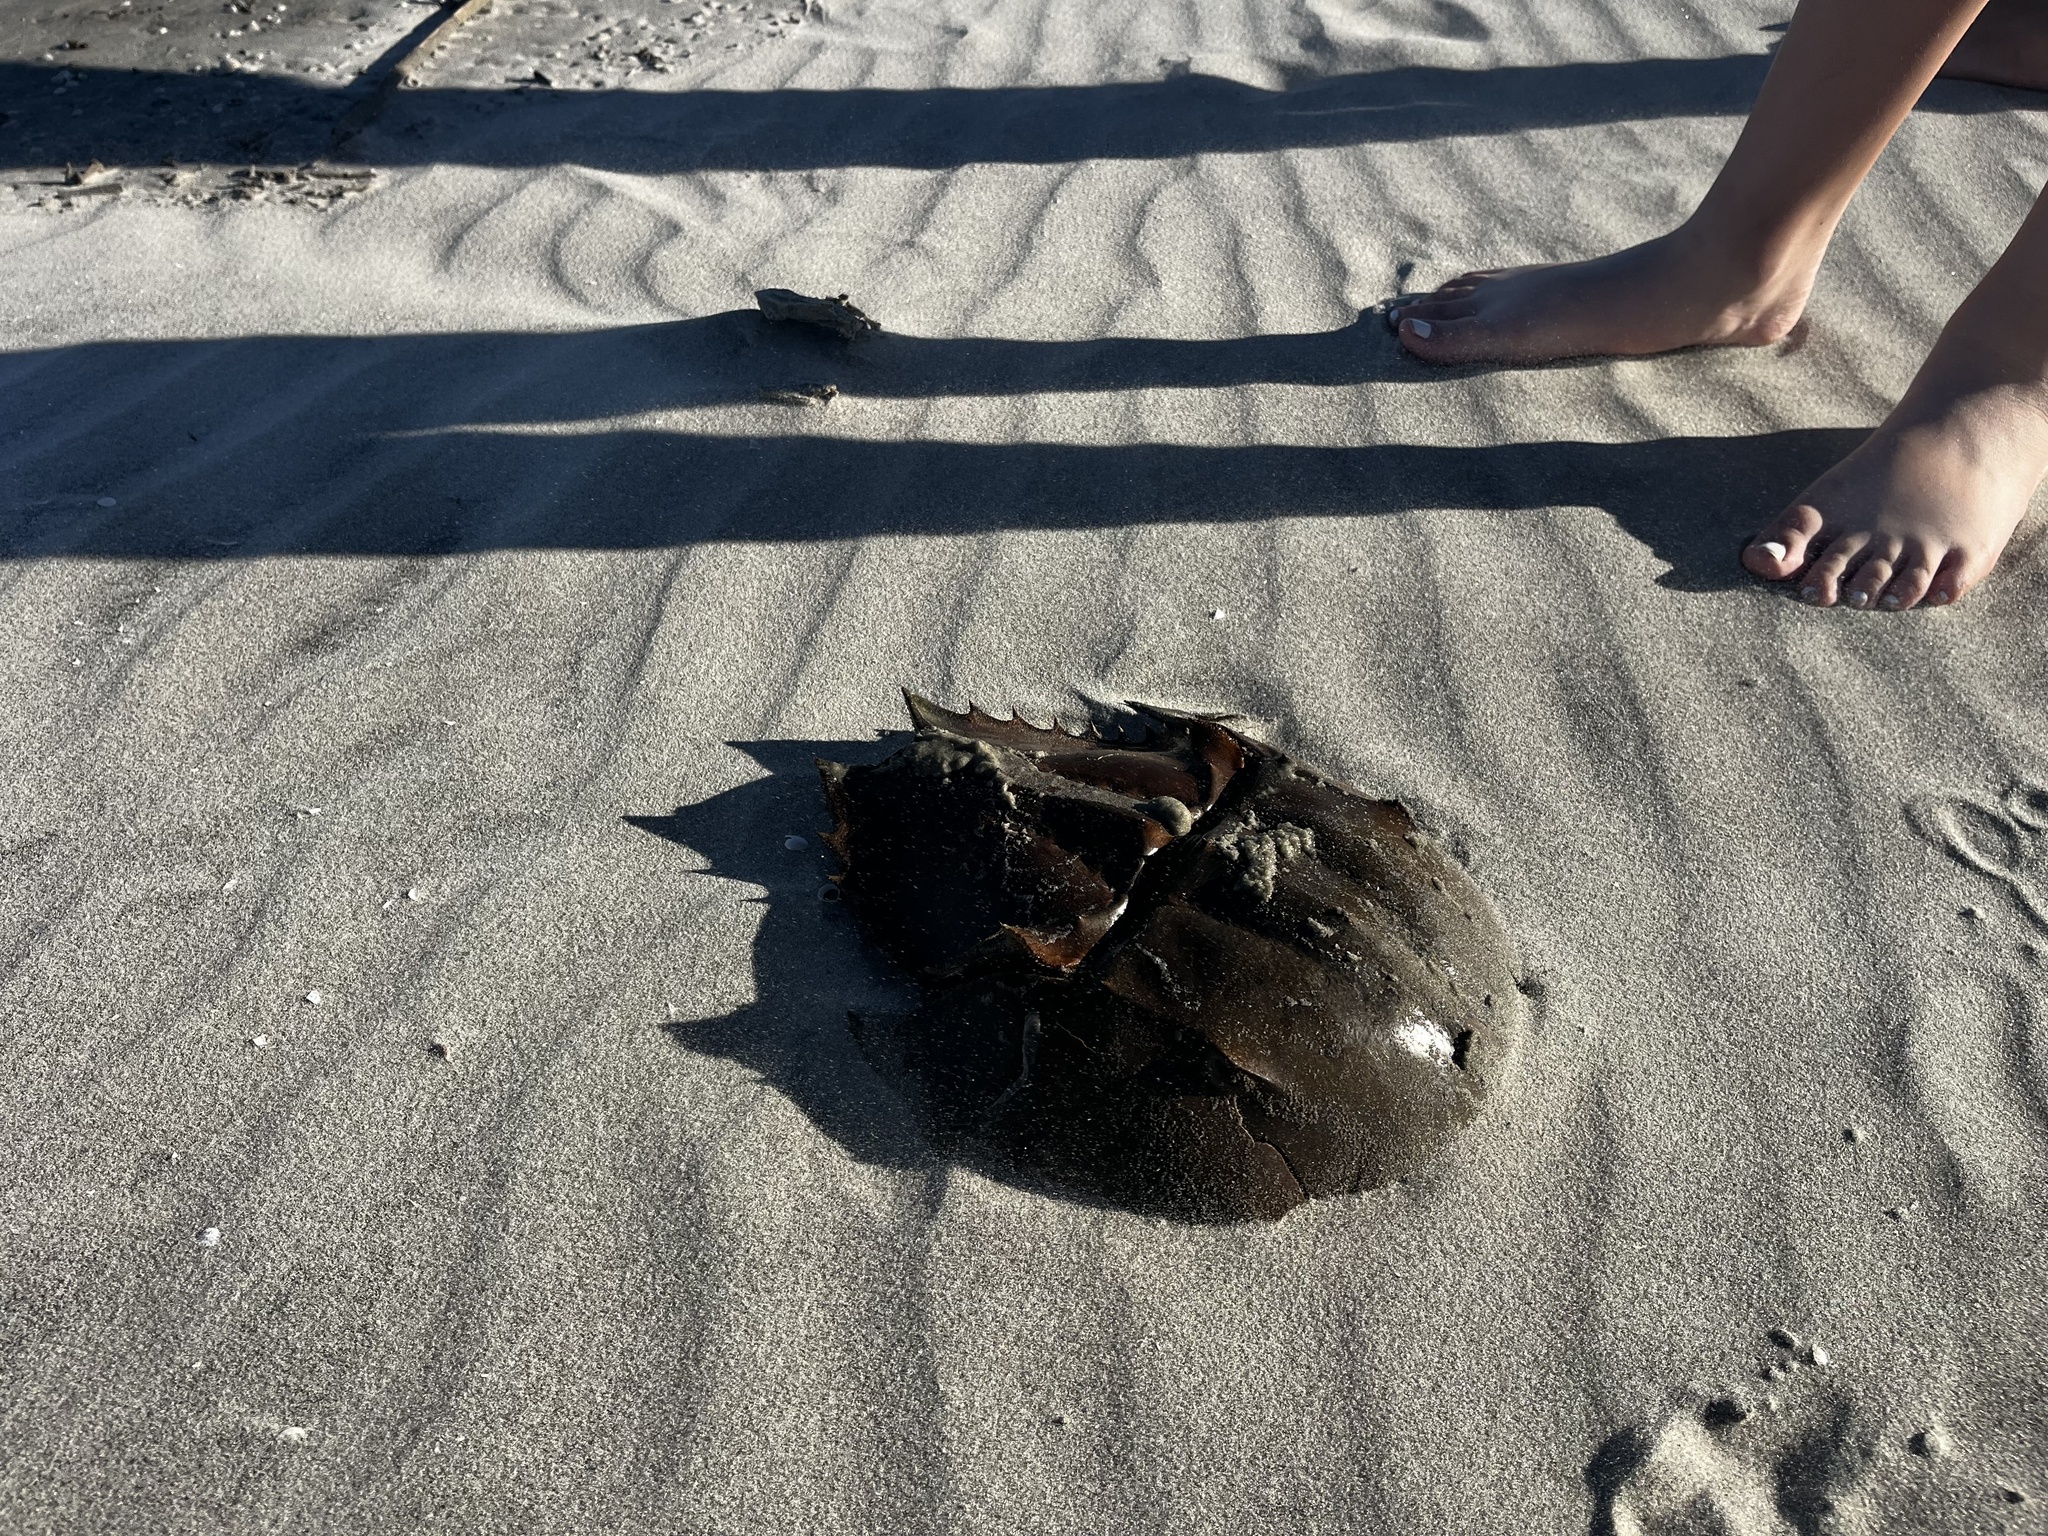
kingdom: Animalia
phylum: Arthropoda
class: Merostomata
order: Xiphosurida
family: Limulidae
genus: Limulus
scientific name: Limulus polyphemus
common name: Horseshoe crab
